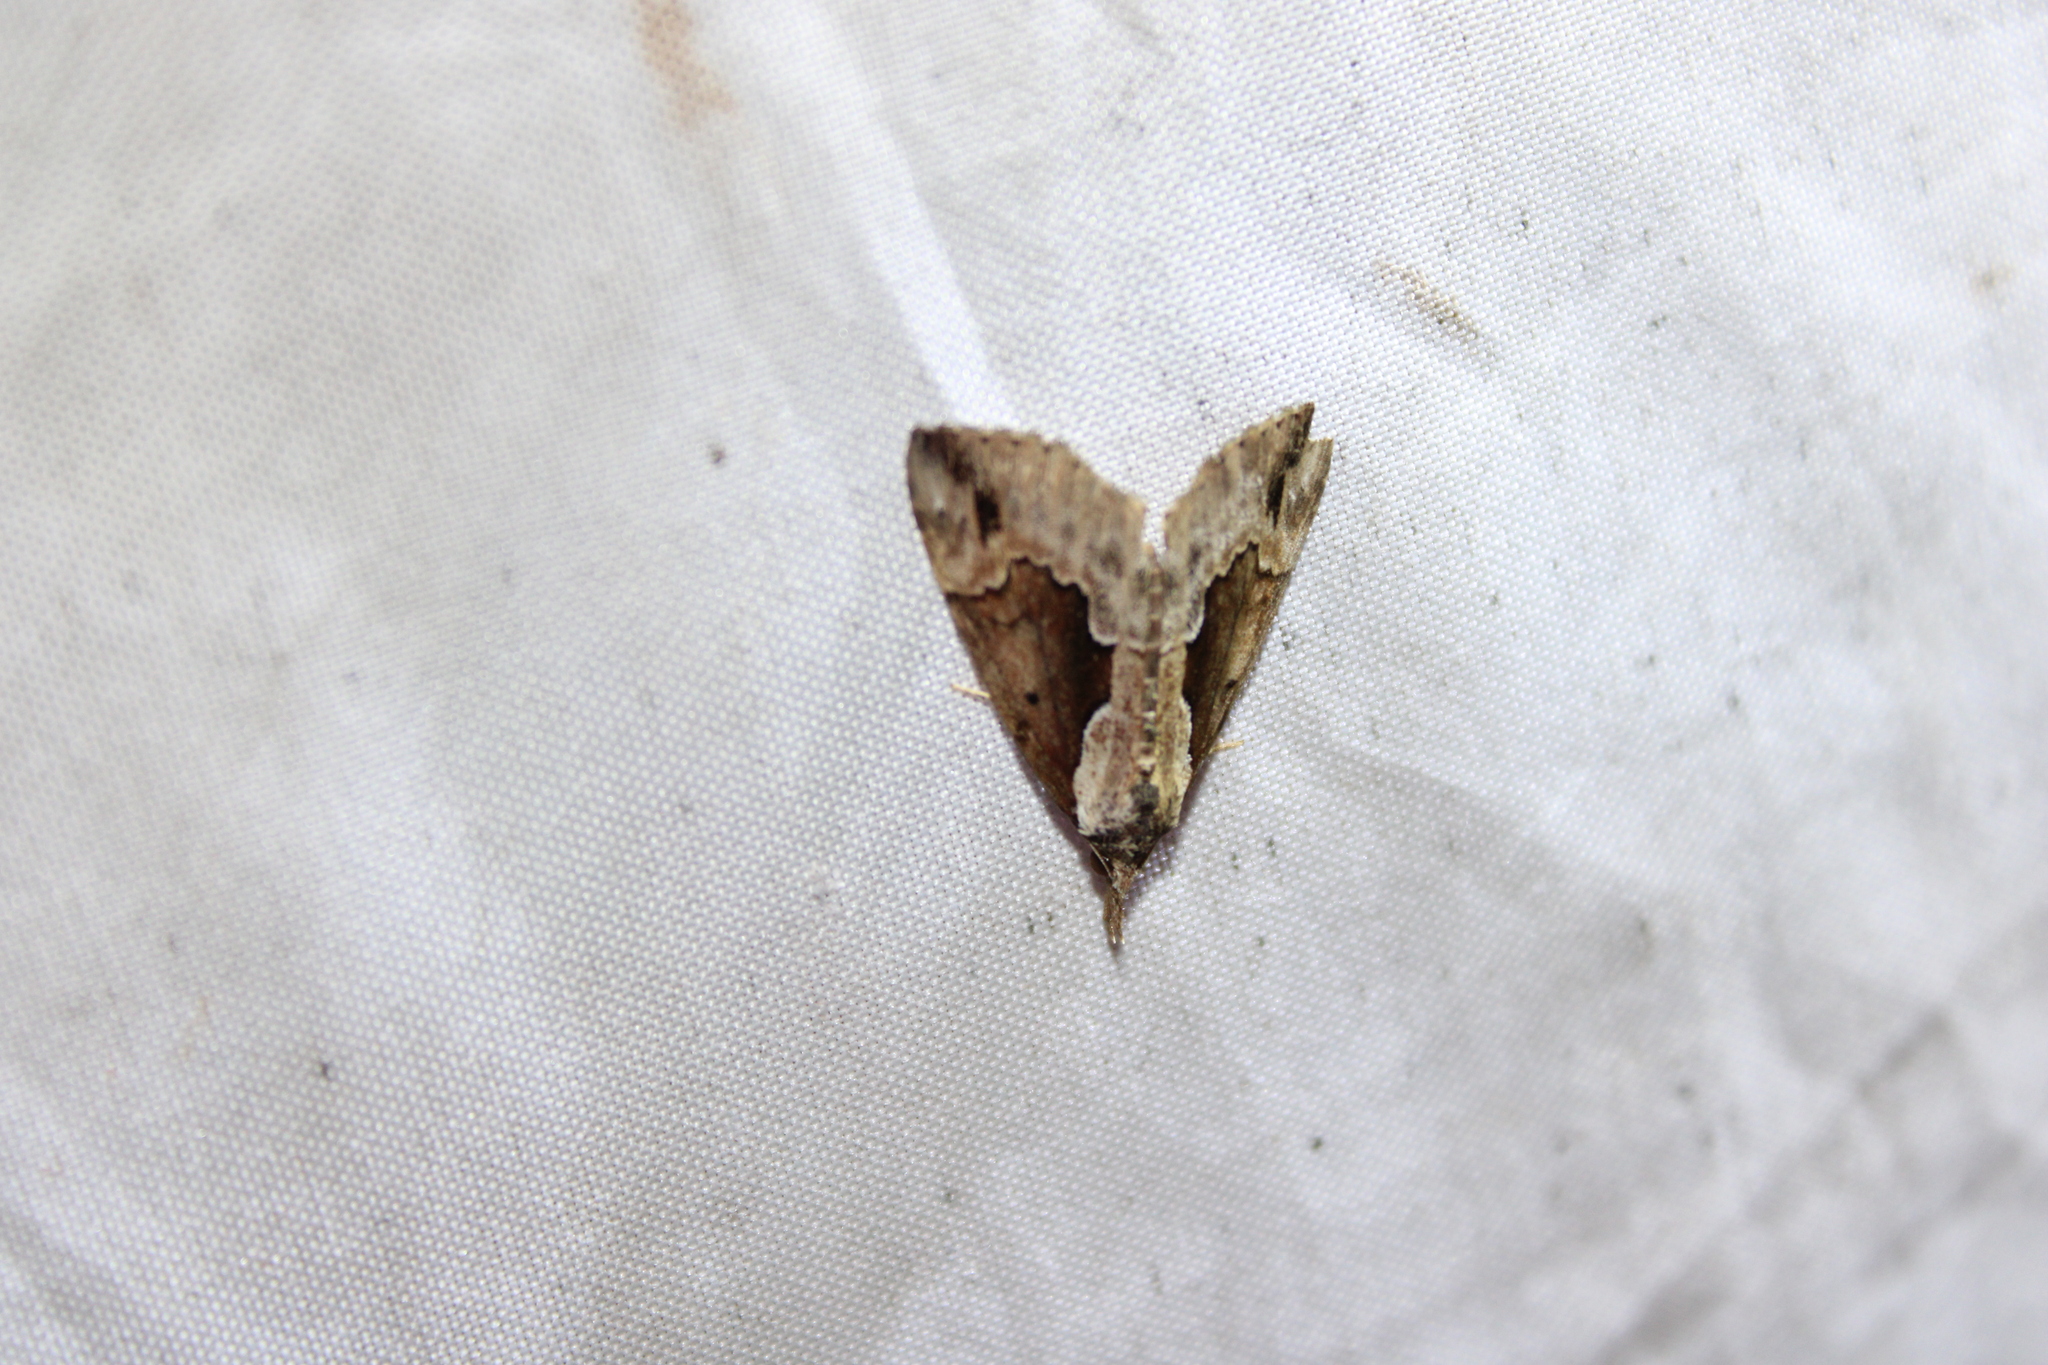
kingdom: Animalia
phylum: Arthropoda
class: Insecta
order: Lepidoptera
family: Erebidae
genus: Hypena
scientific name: Hypena baltimoralis
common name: Baltimore snout
